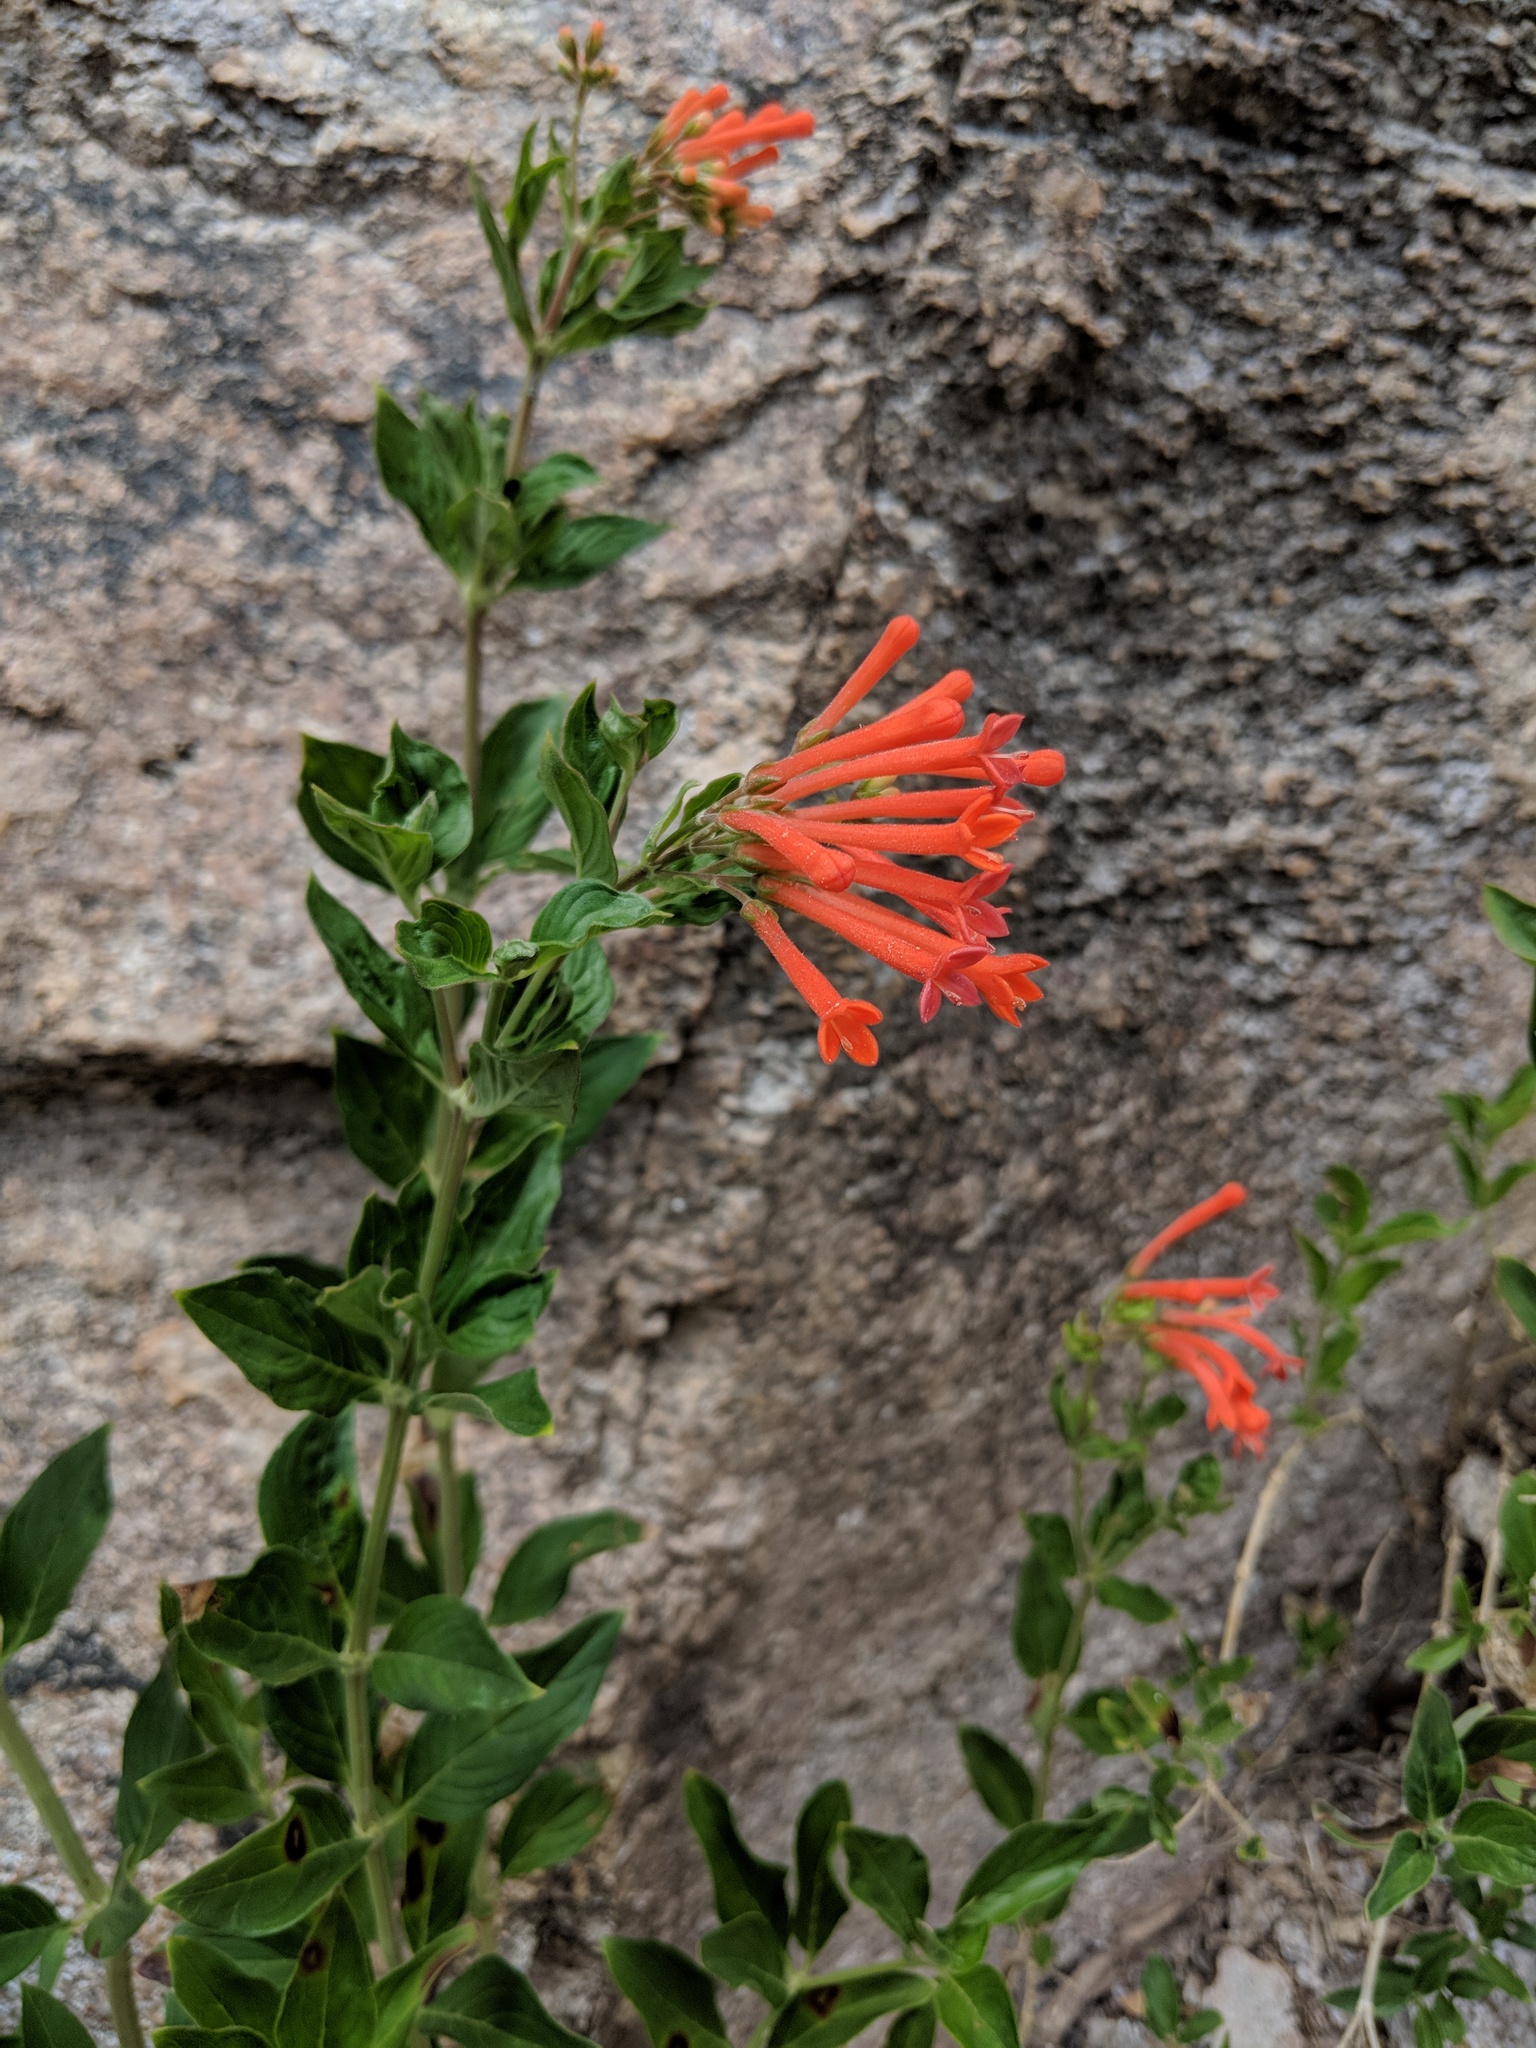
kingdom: Plantae
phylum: Tracheophyta
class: Magnoliopsida
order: Gentianales
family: Rubiaceae
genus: Bouvardia
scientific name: Bouvardia ternifolia
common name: Scarlet bouvardia
